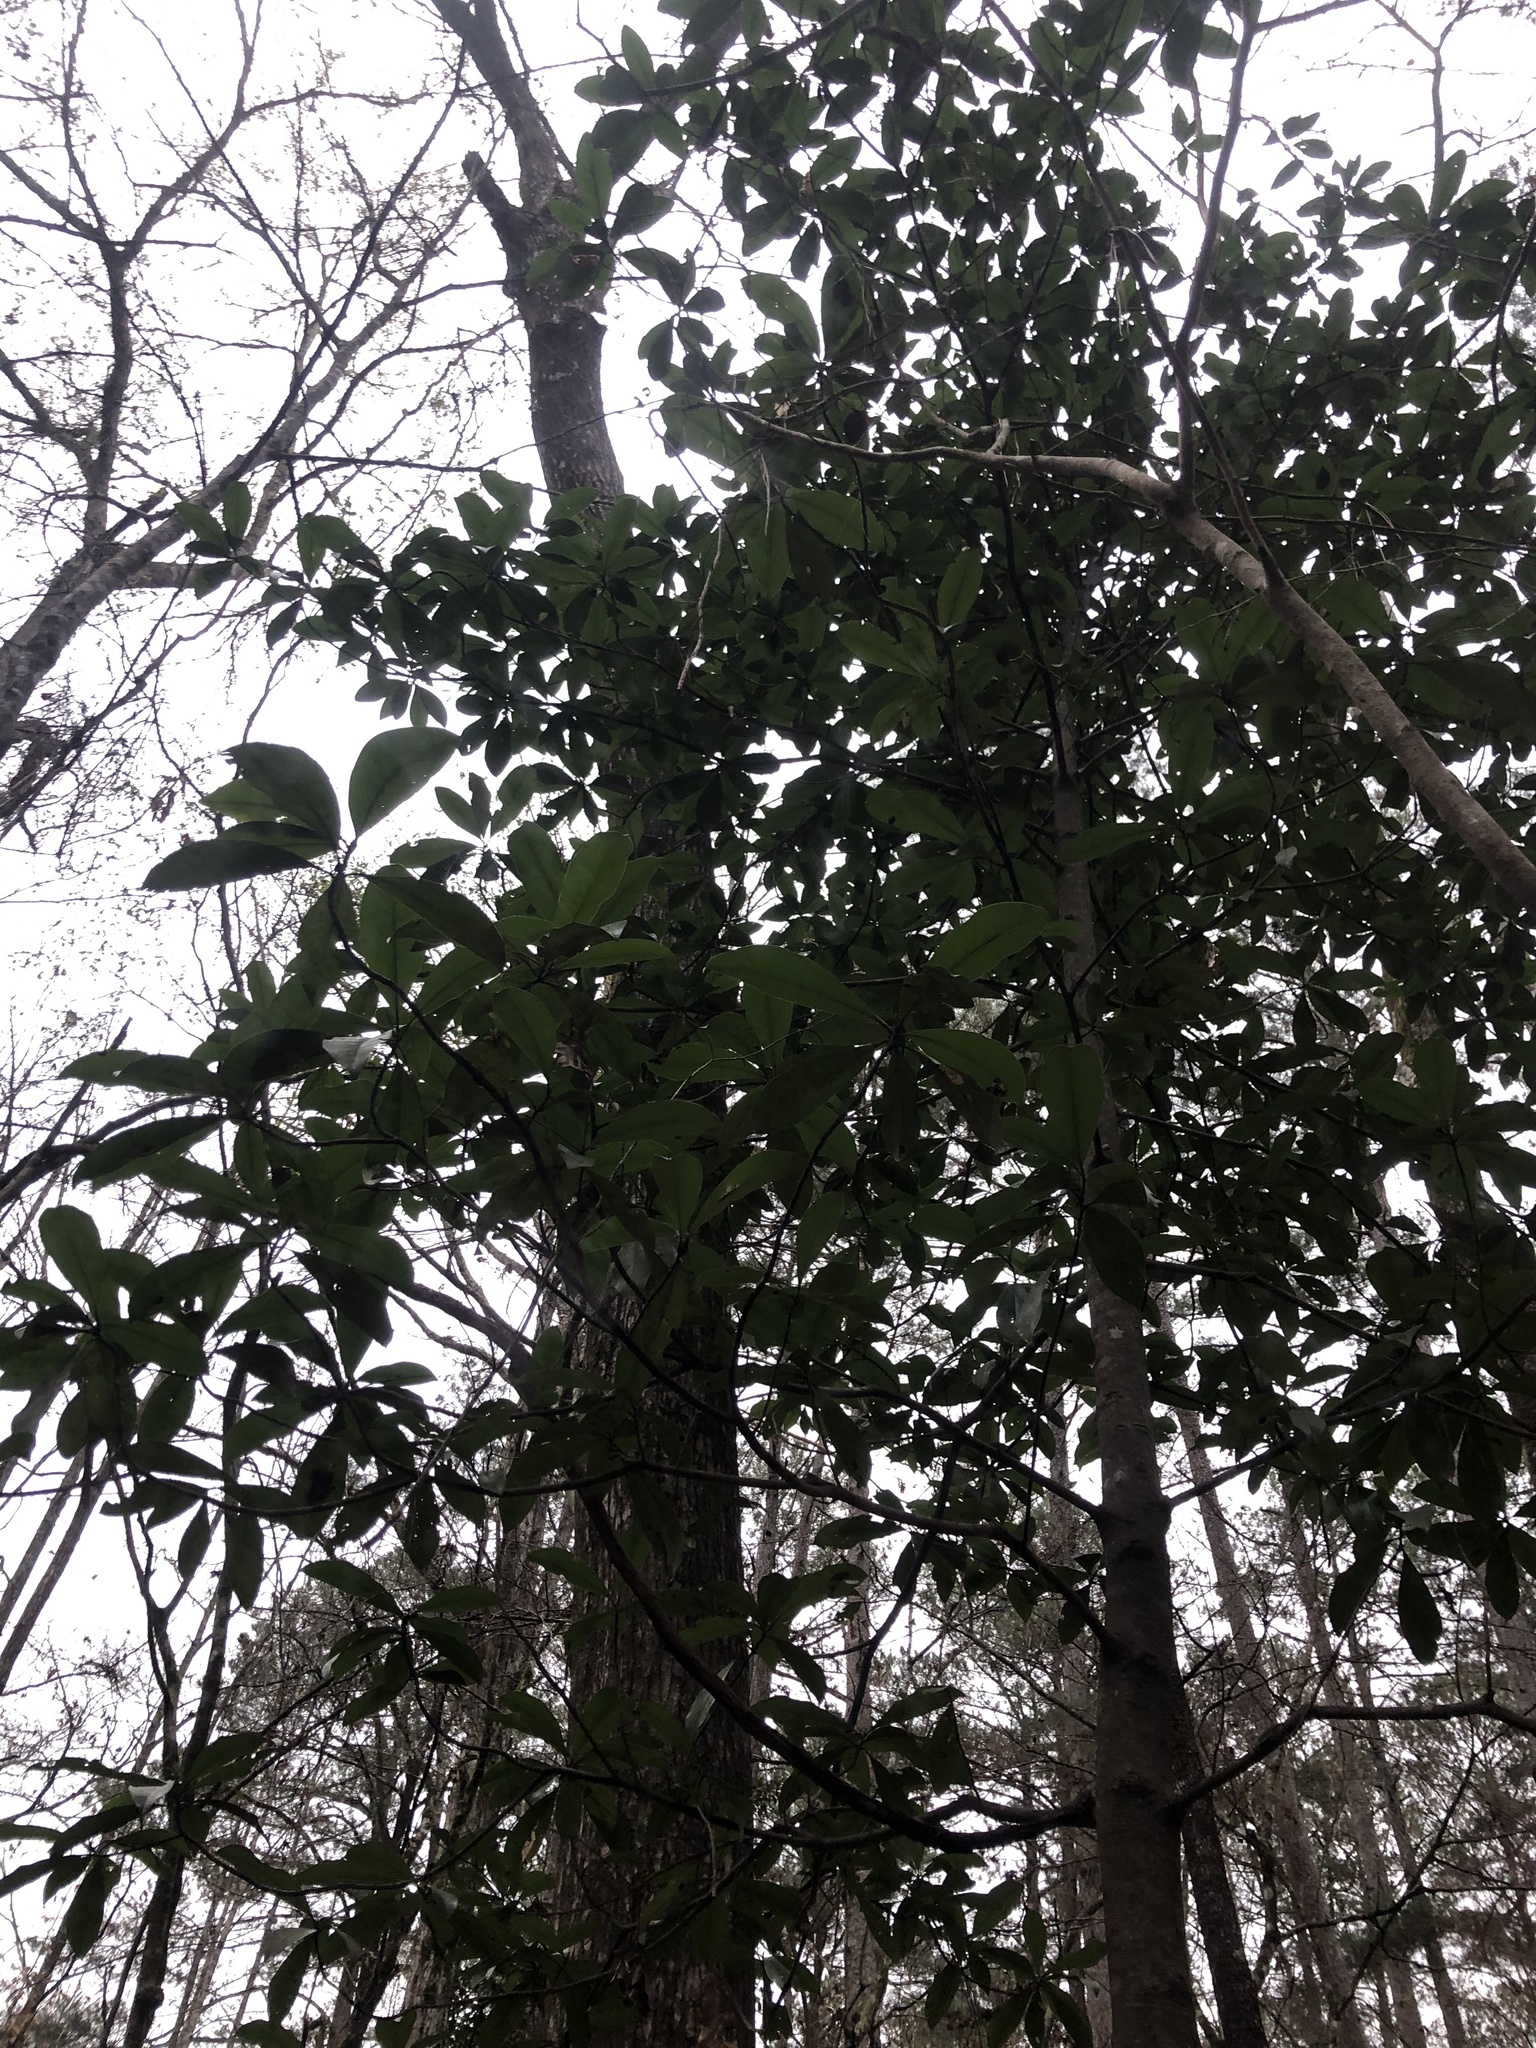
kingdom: Plantae
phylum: Tracheophyta
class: Magnoliopsida
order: Magnoliales
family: Magnoliaceae
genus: Magnolia
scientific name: Magnolia grandiflora
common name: Southern magnolia
